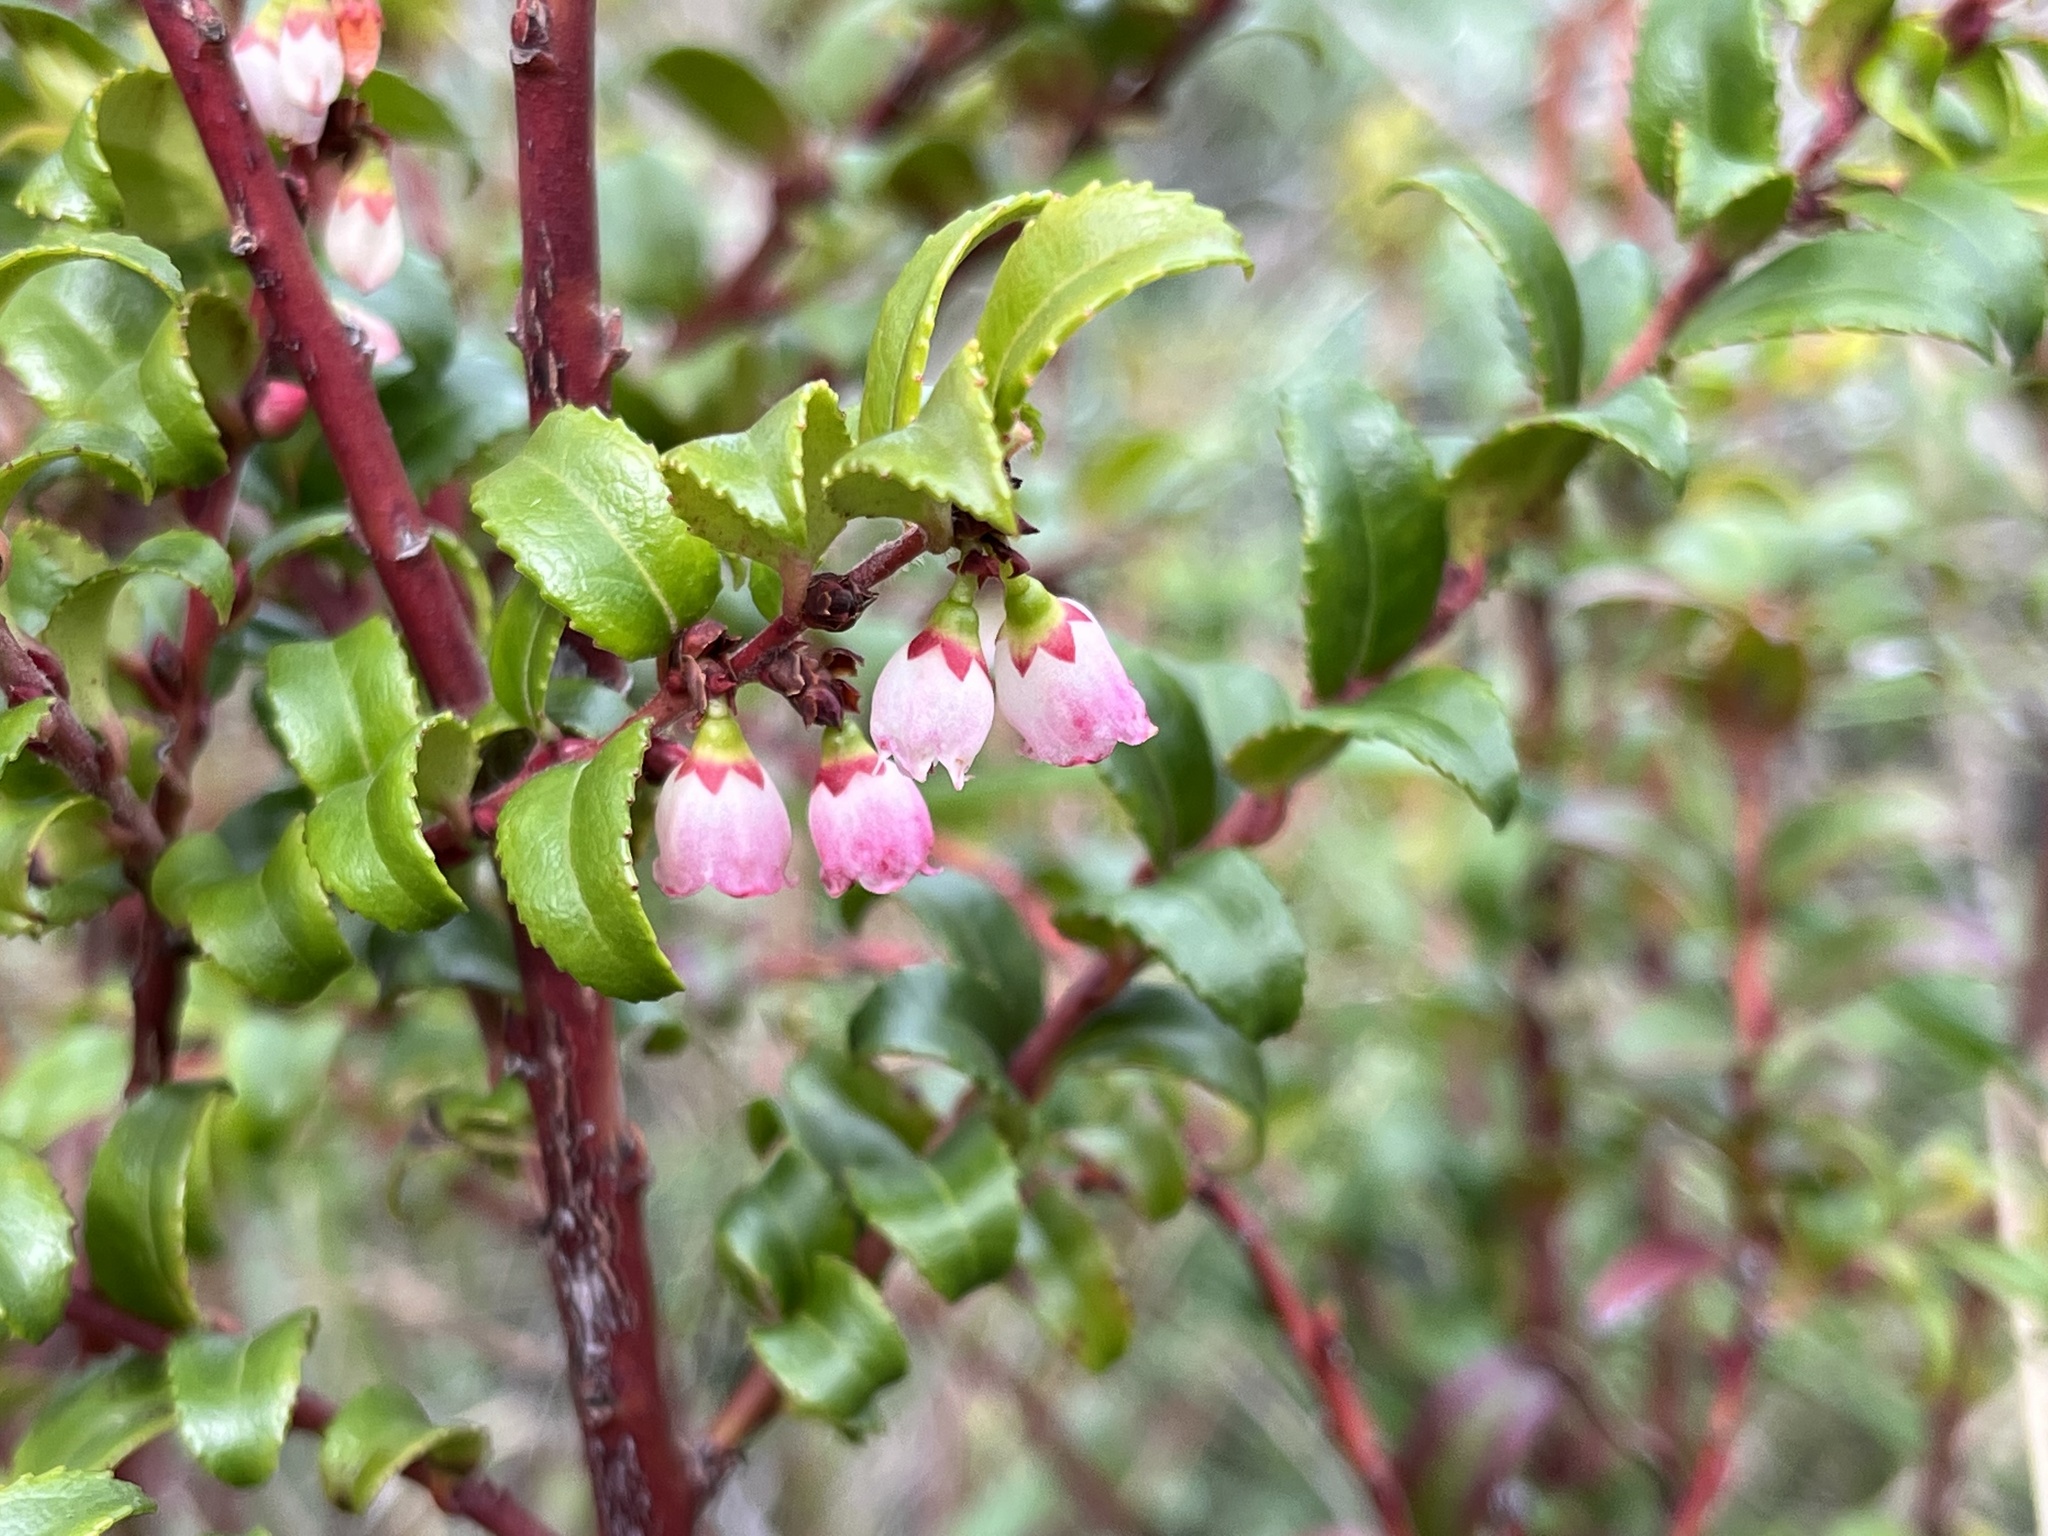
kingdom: Plantae
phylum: Tracheophyta
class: Magnoliopsida
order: Ericales
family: Ericaceae
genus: Vaccinium
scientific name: Vaccinium ovatum
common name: California-huckleberry
